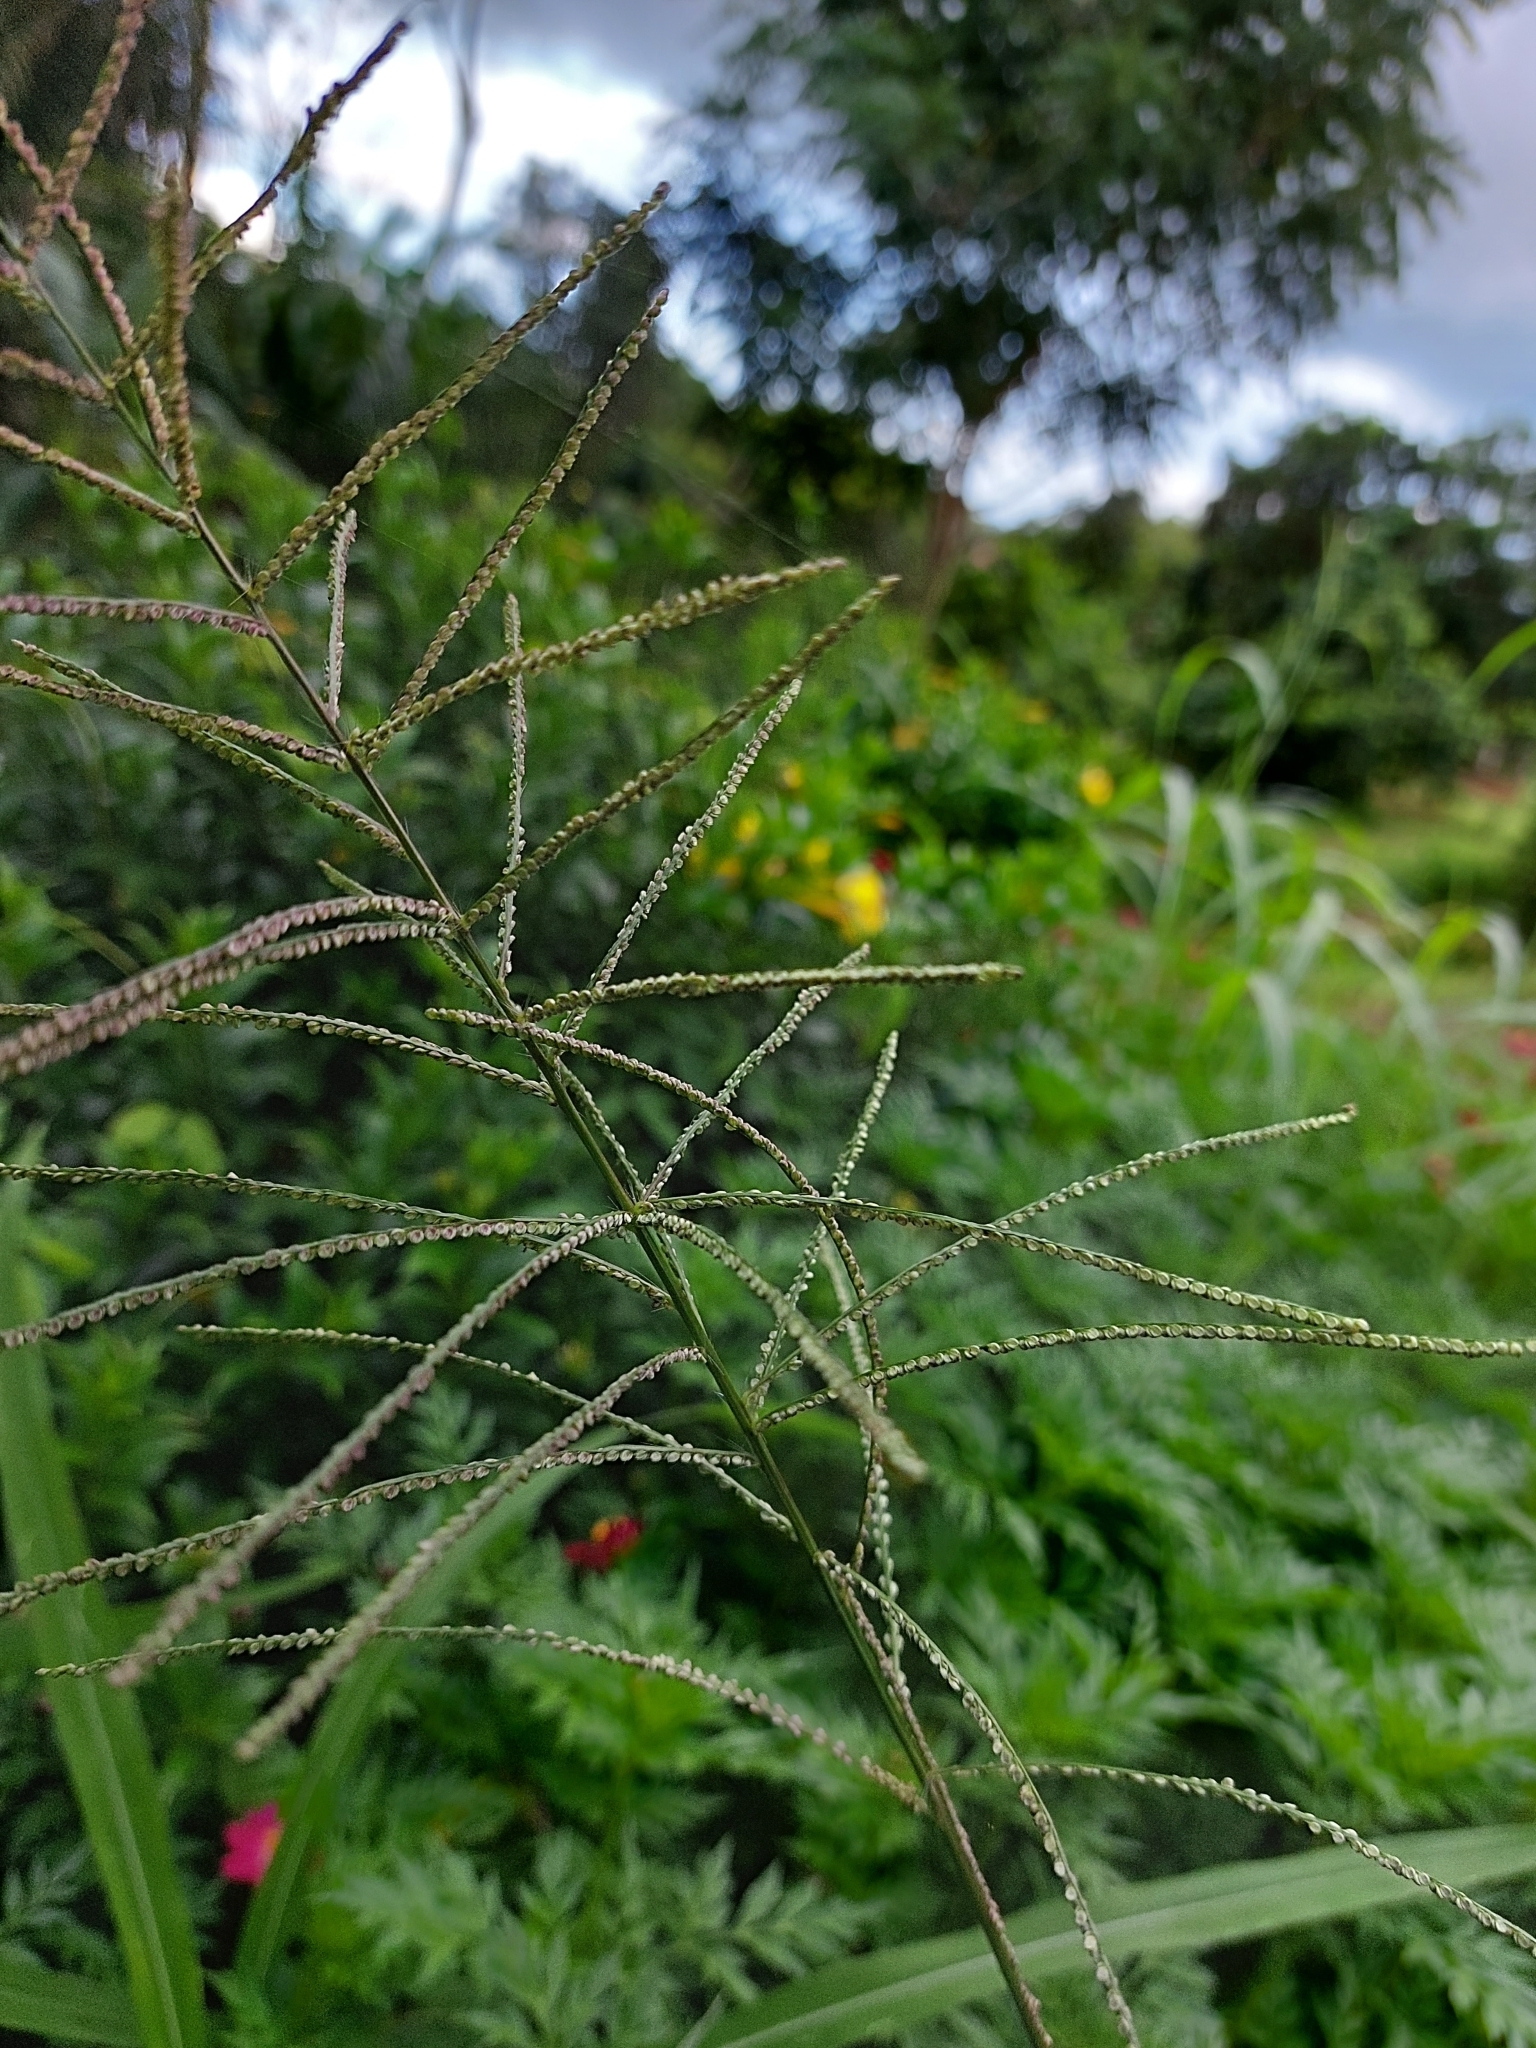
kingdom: Plantae
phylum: Tracheophyta
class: Liliopsida
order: Poales
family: Poaceae
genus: Paspalum
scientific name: Paspalum paniculatum
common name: Arrocillo
